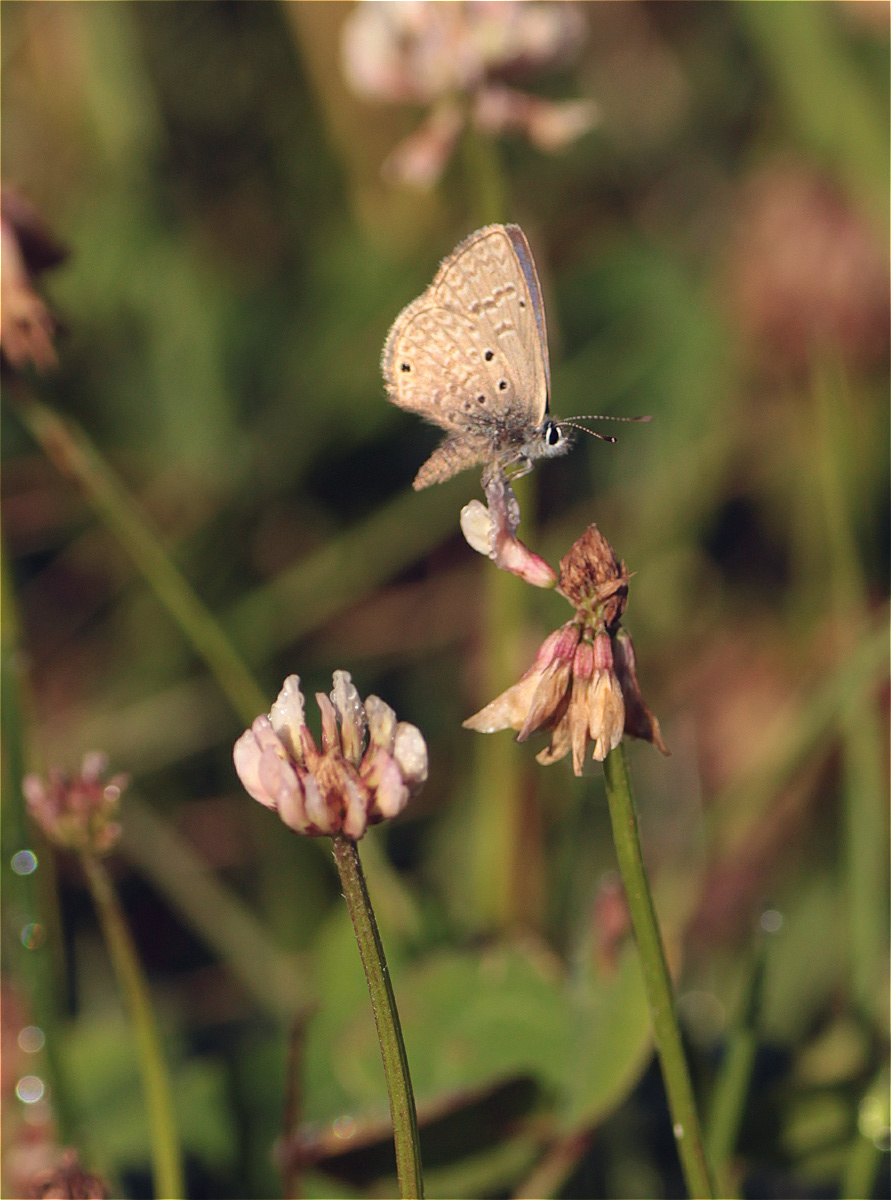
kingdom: Animalia
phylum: Arthropoda
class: Insecta
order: Lepidoptera
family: Lycaenidae
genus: Hemiargus
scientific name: Hemiargus hanno
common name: Common blue
